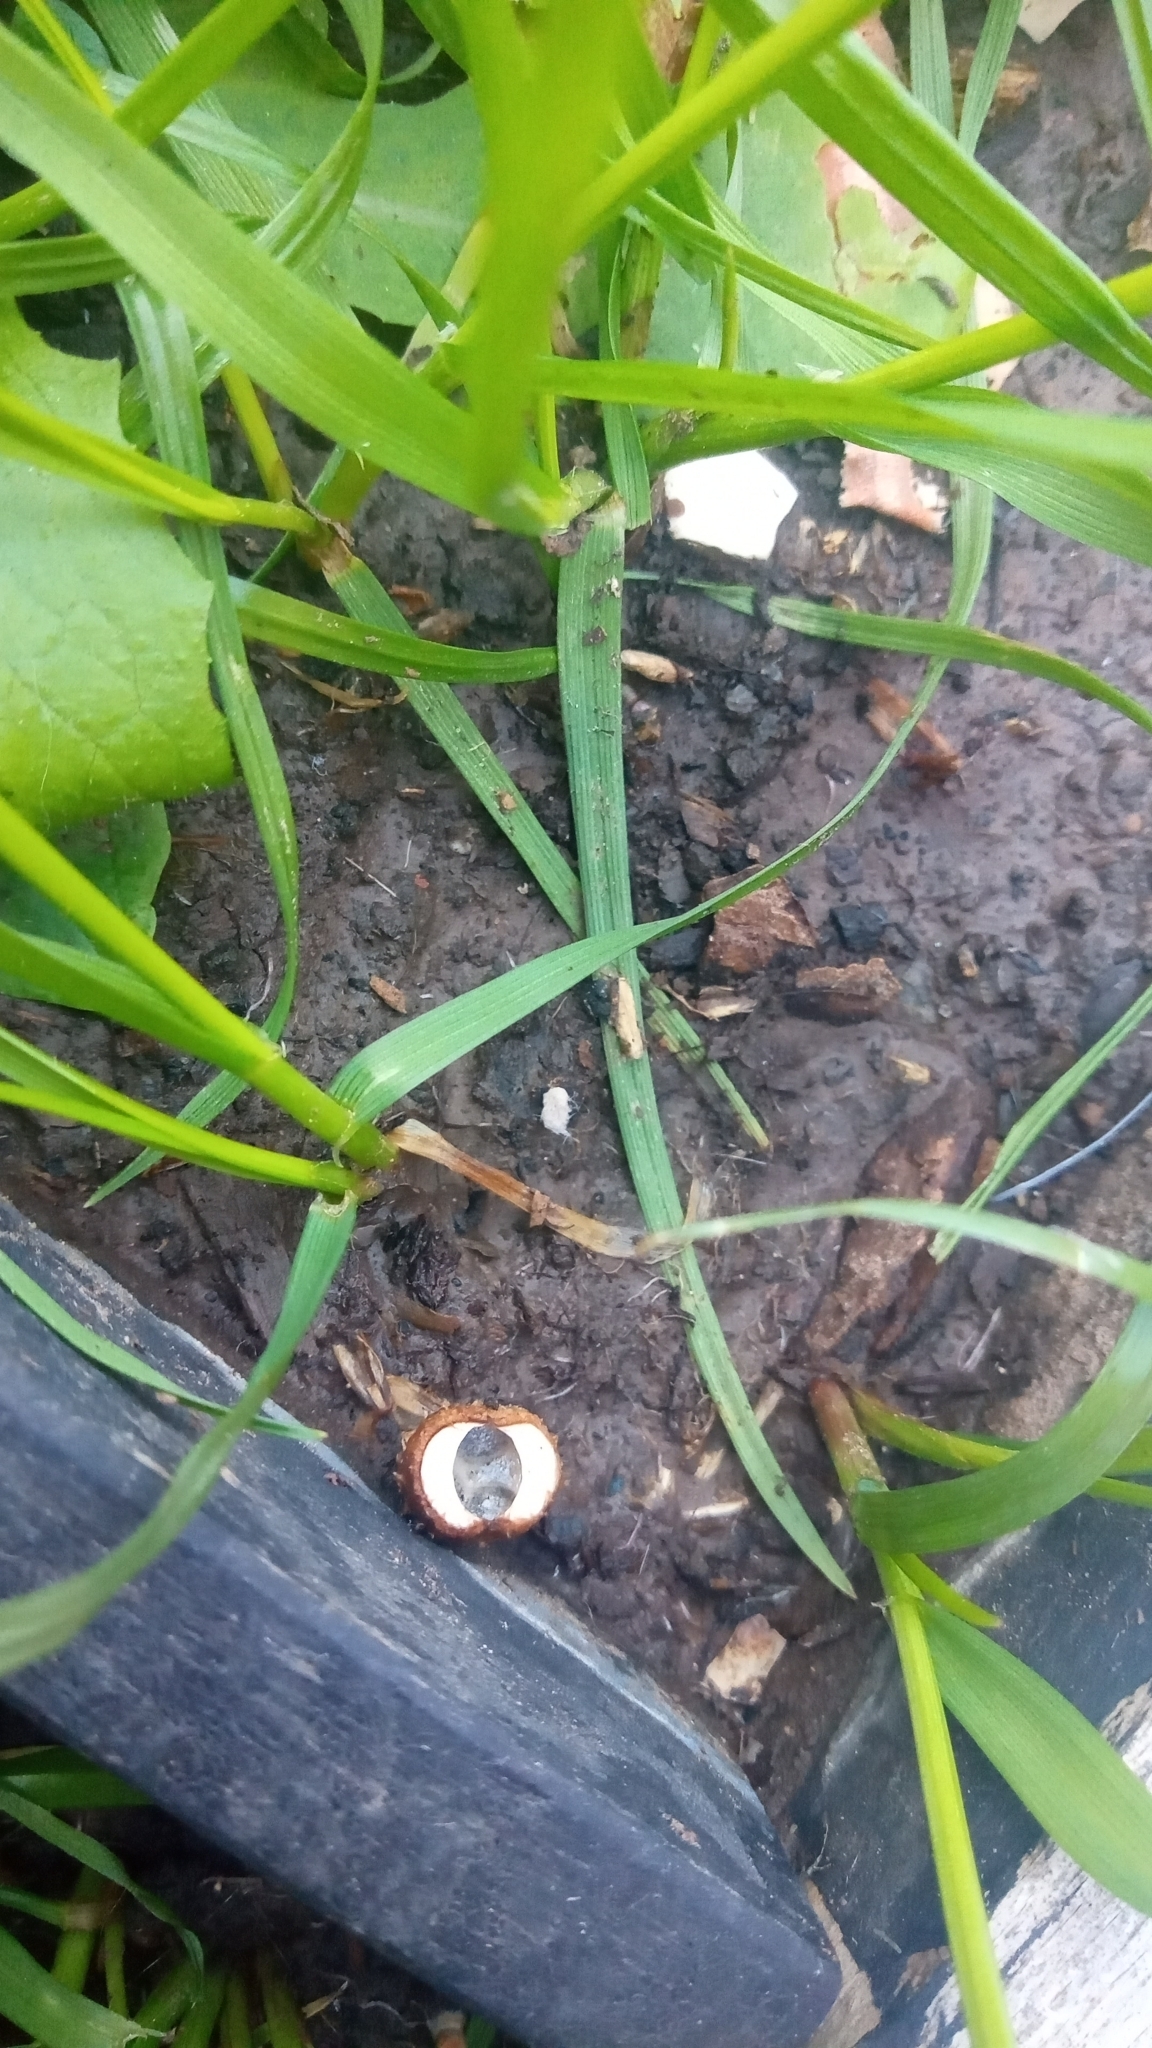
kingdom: Fungi
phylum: Basidiomycota
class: Agaricomycetes
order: Agaricales
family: Agaricaceae
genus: Cyathus
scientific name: Cyathus stercoreus
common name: Dung bird's nest
